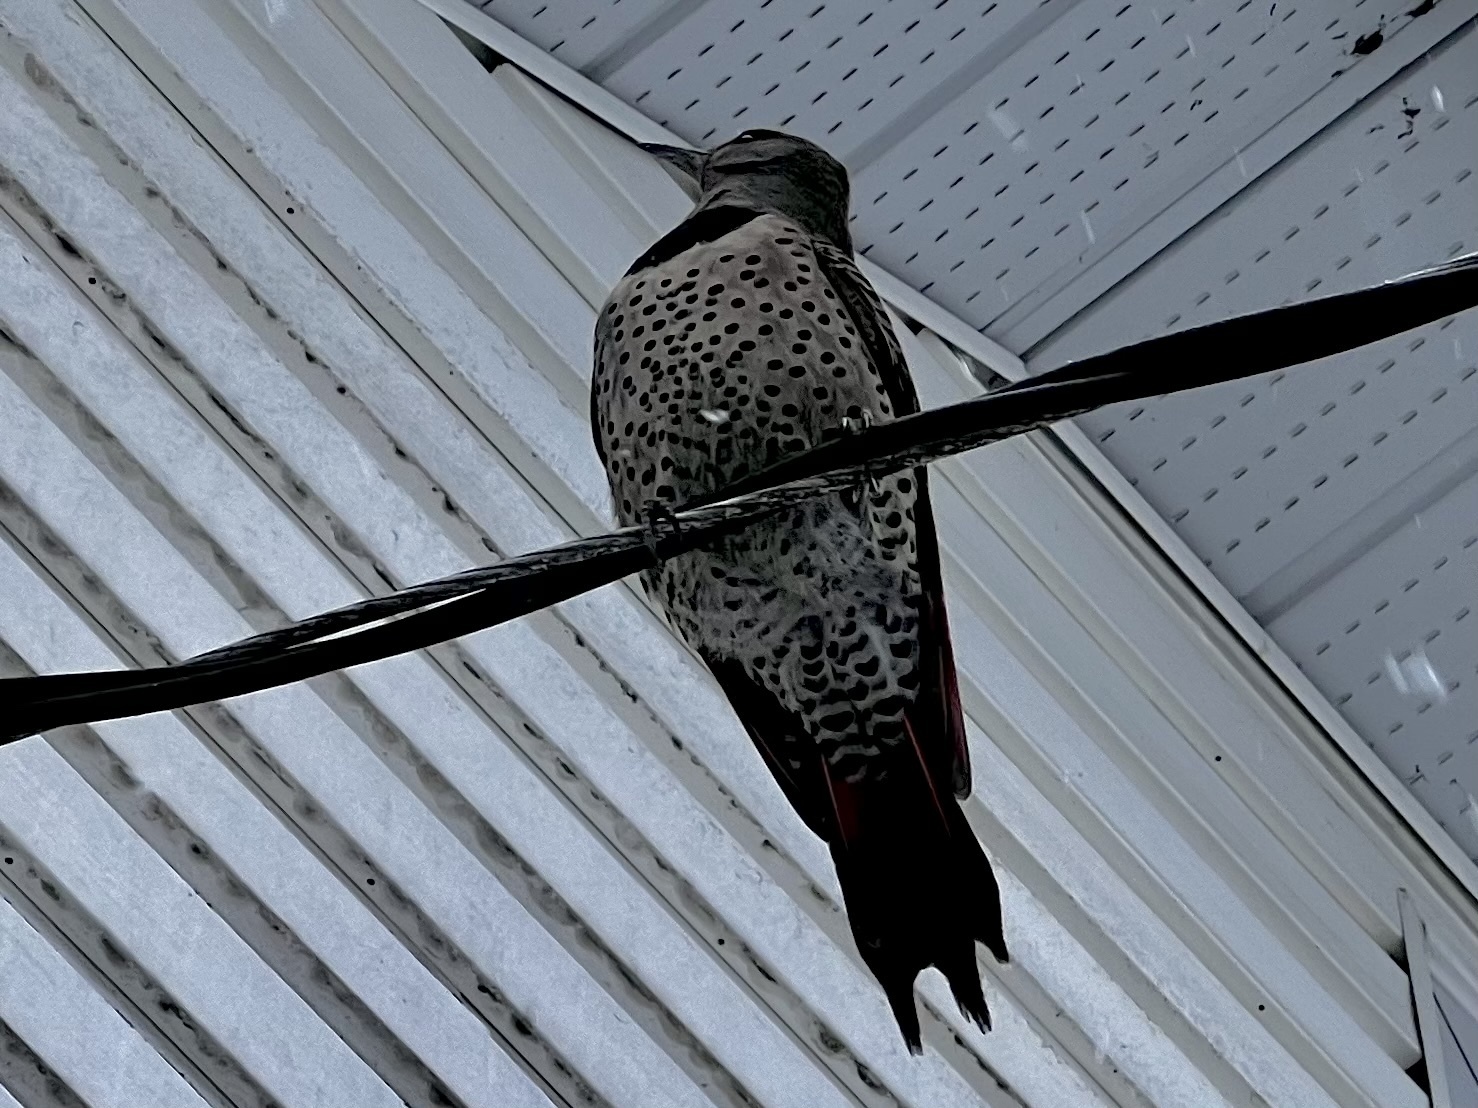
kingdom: Animalia
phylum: Chordata
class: Aves
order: Piciformes
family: Picidae
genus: Colaptes
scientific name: Colaptes auratus
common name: Northern flicker
